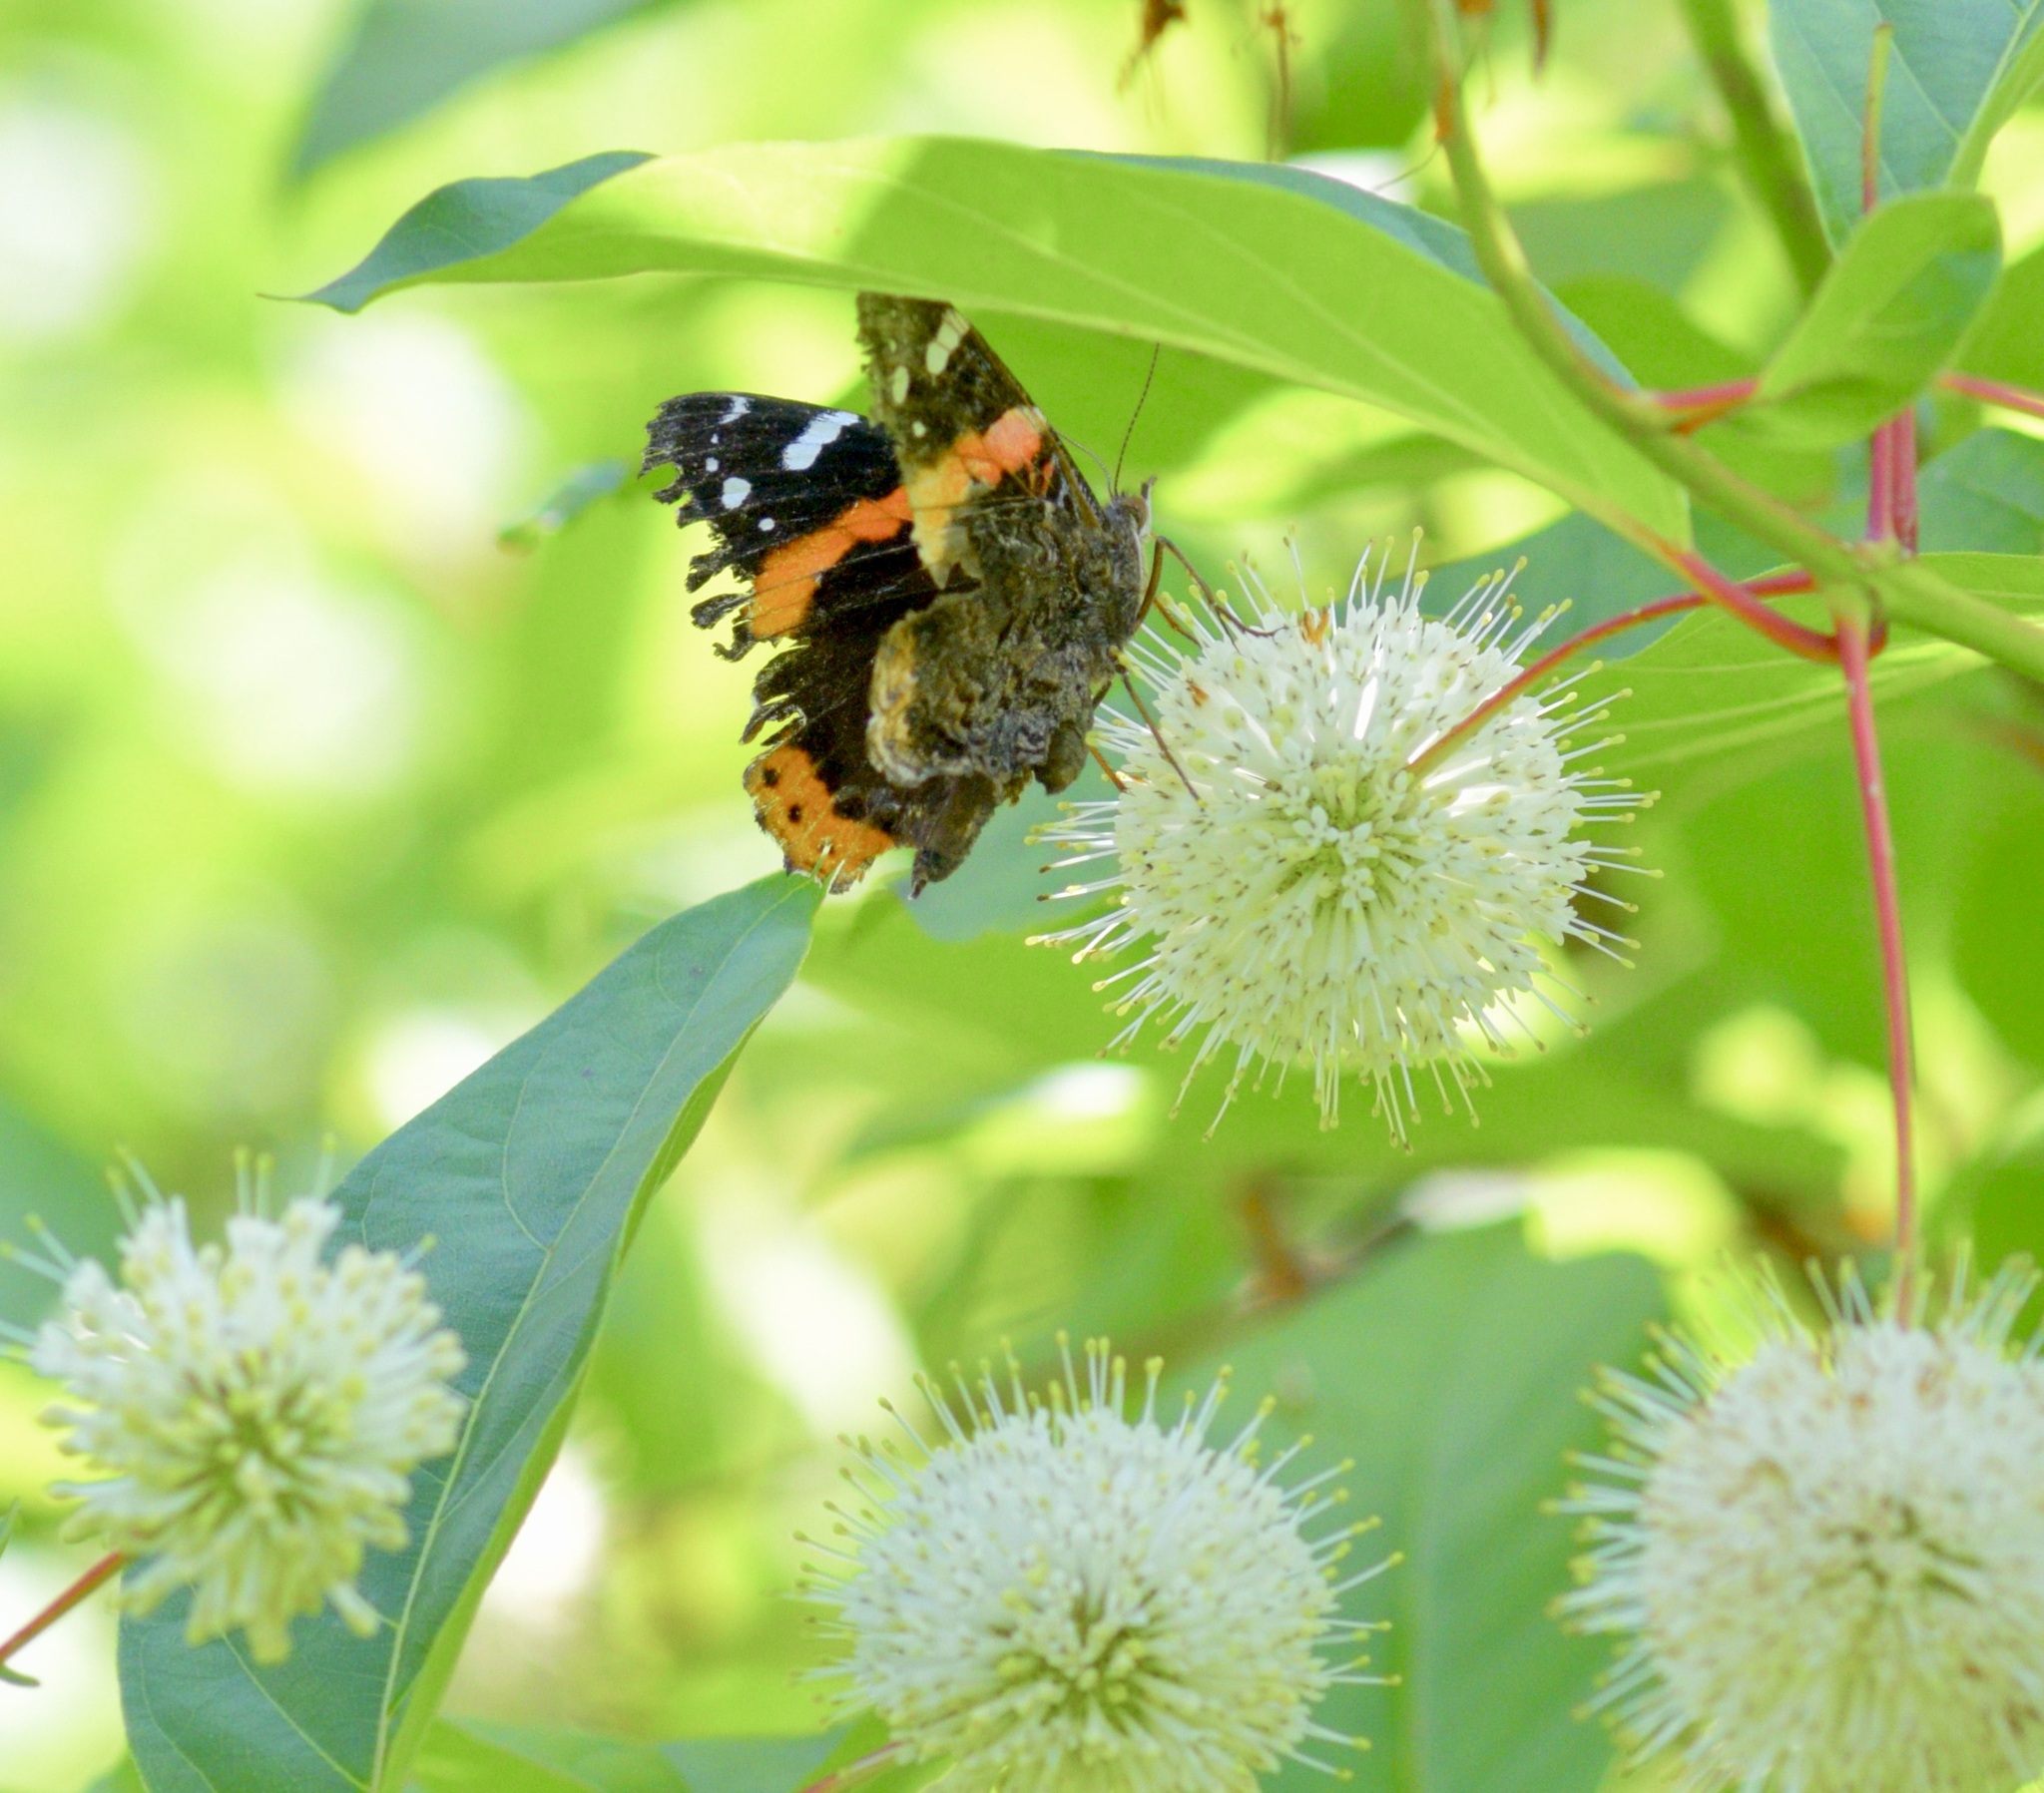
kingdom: Animalia
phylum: Arthropoda
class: Insecta
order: Lepidoptera
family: Nymphalidae
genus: Vanessa
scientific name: Vanessa atalanta
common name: Red admiral
